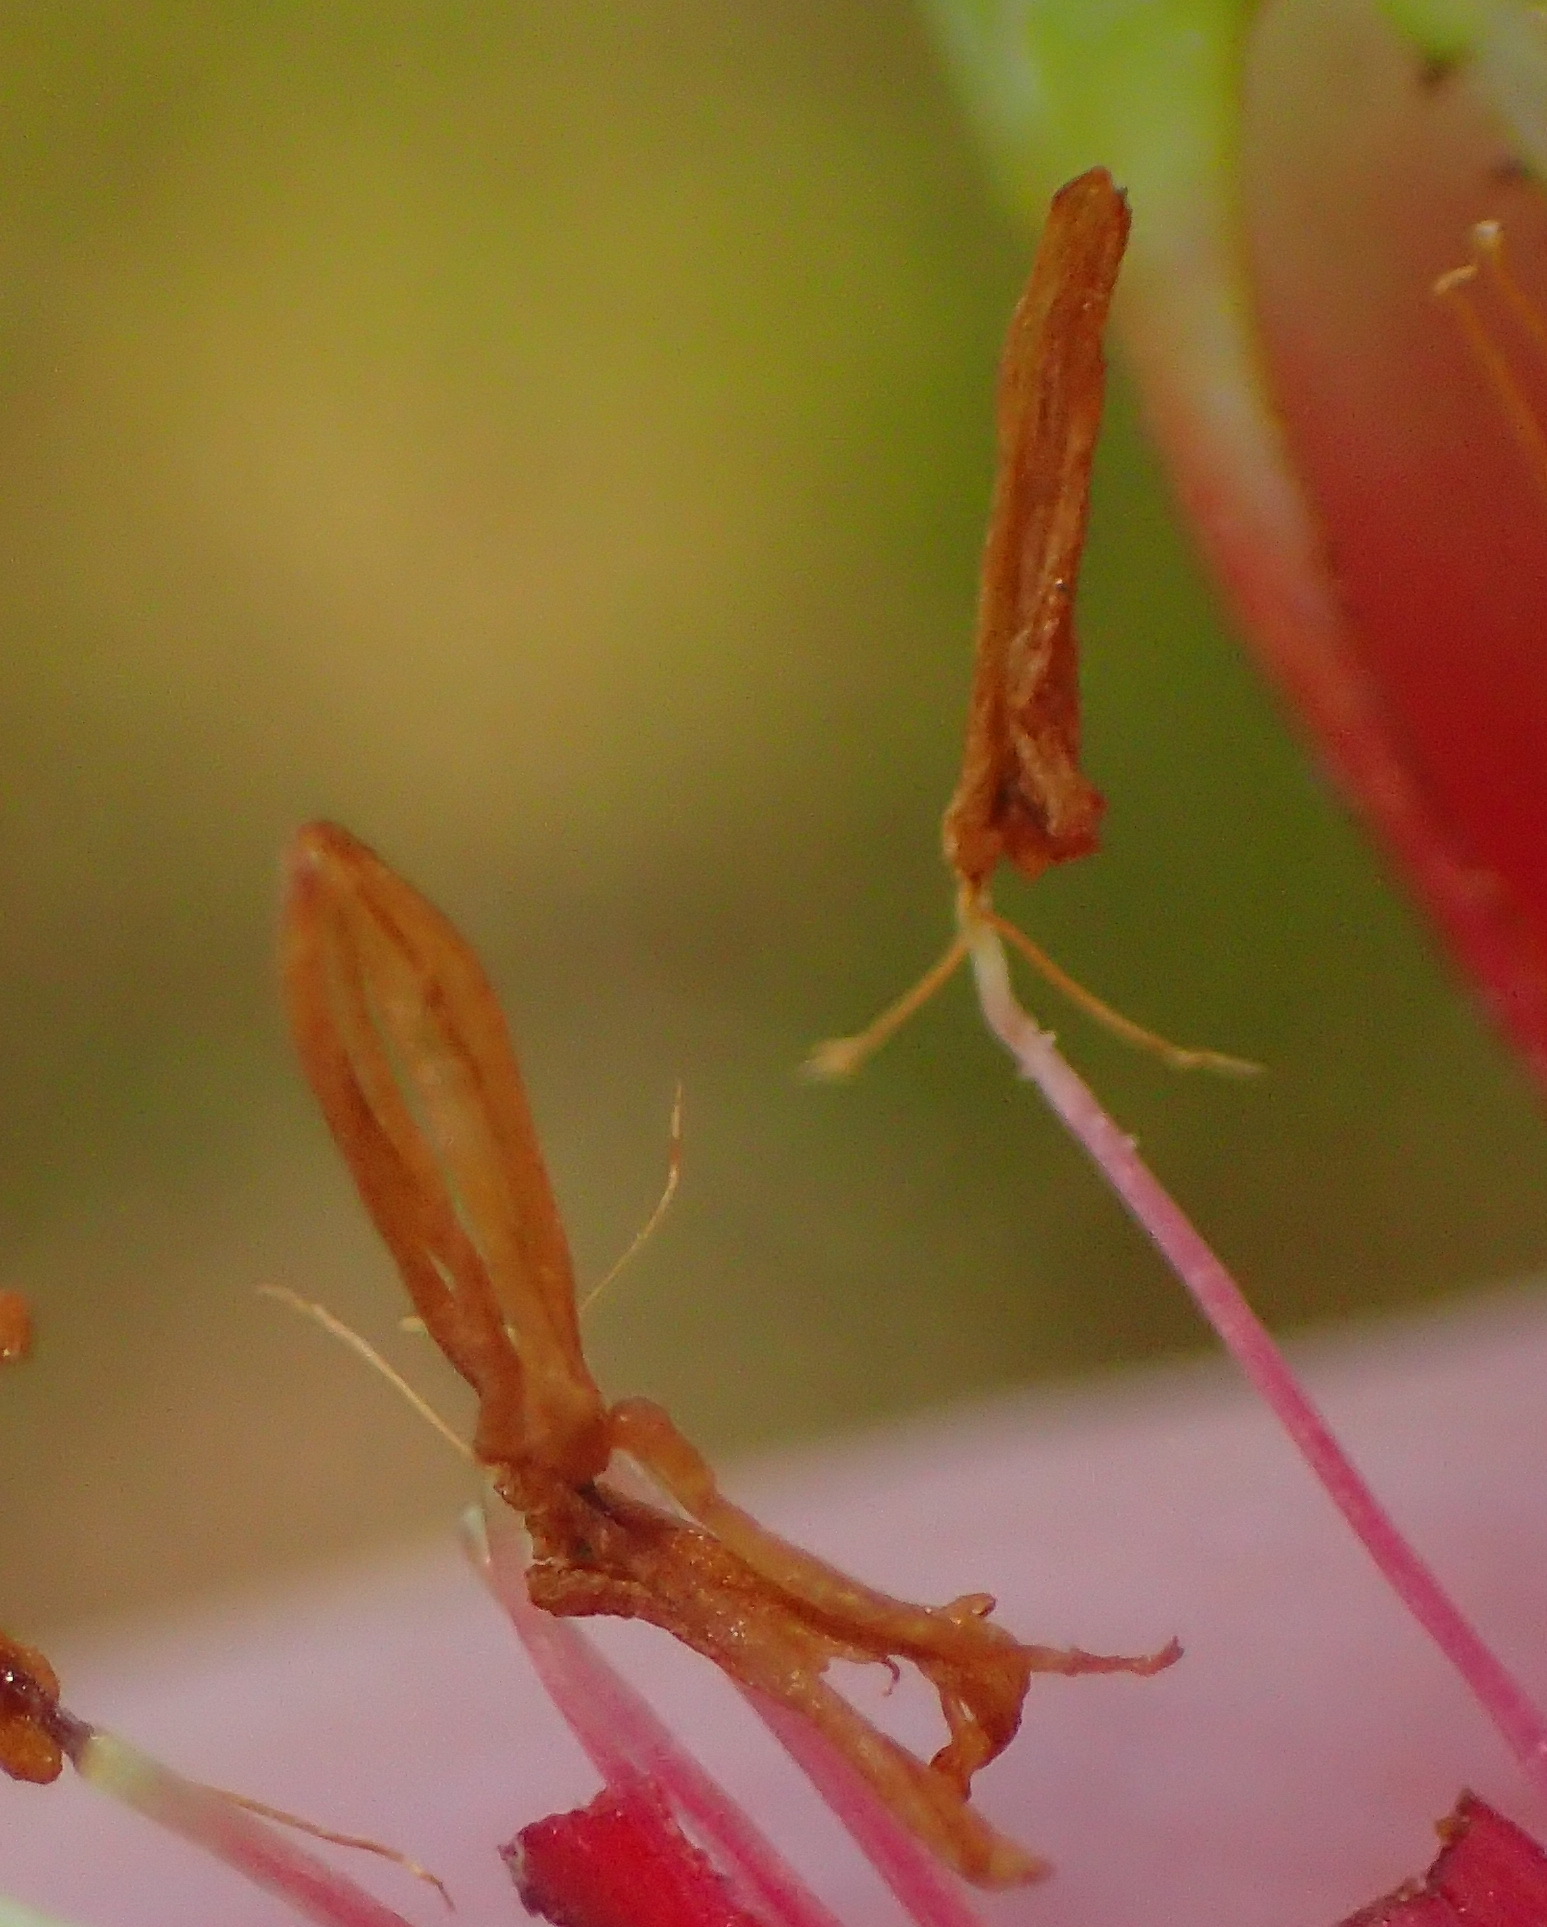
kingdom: Plantae
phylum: Tracheophyta
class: Magnoliopsida
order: Ericales
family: Ericaceae
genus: Erica
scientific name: Erica discolor
